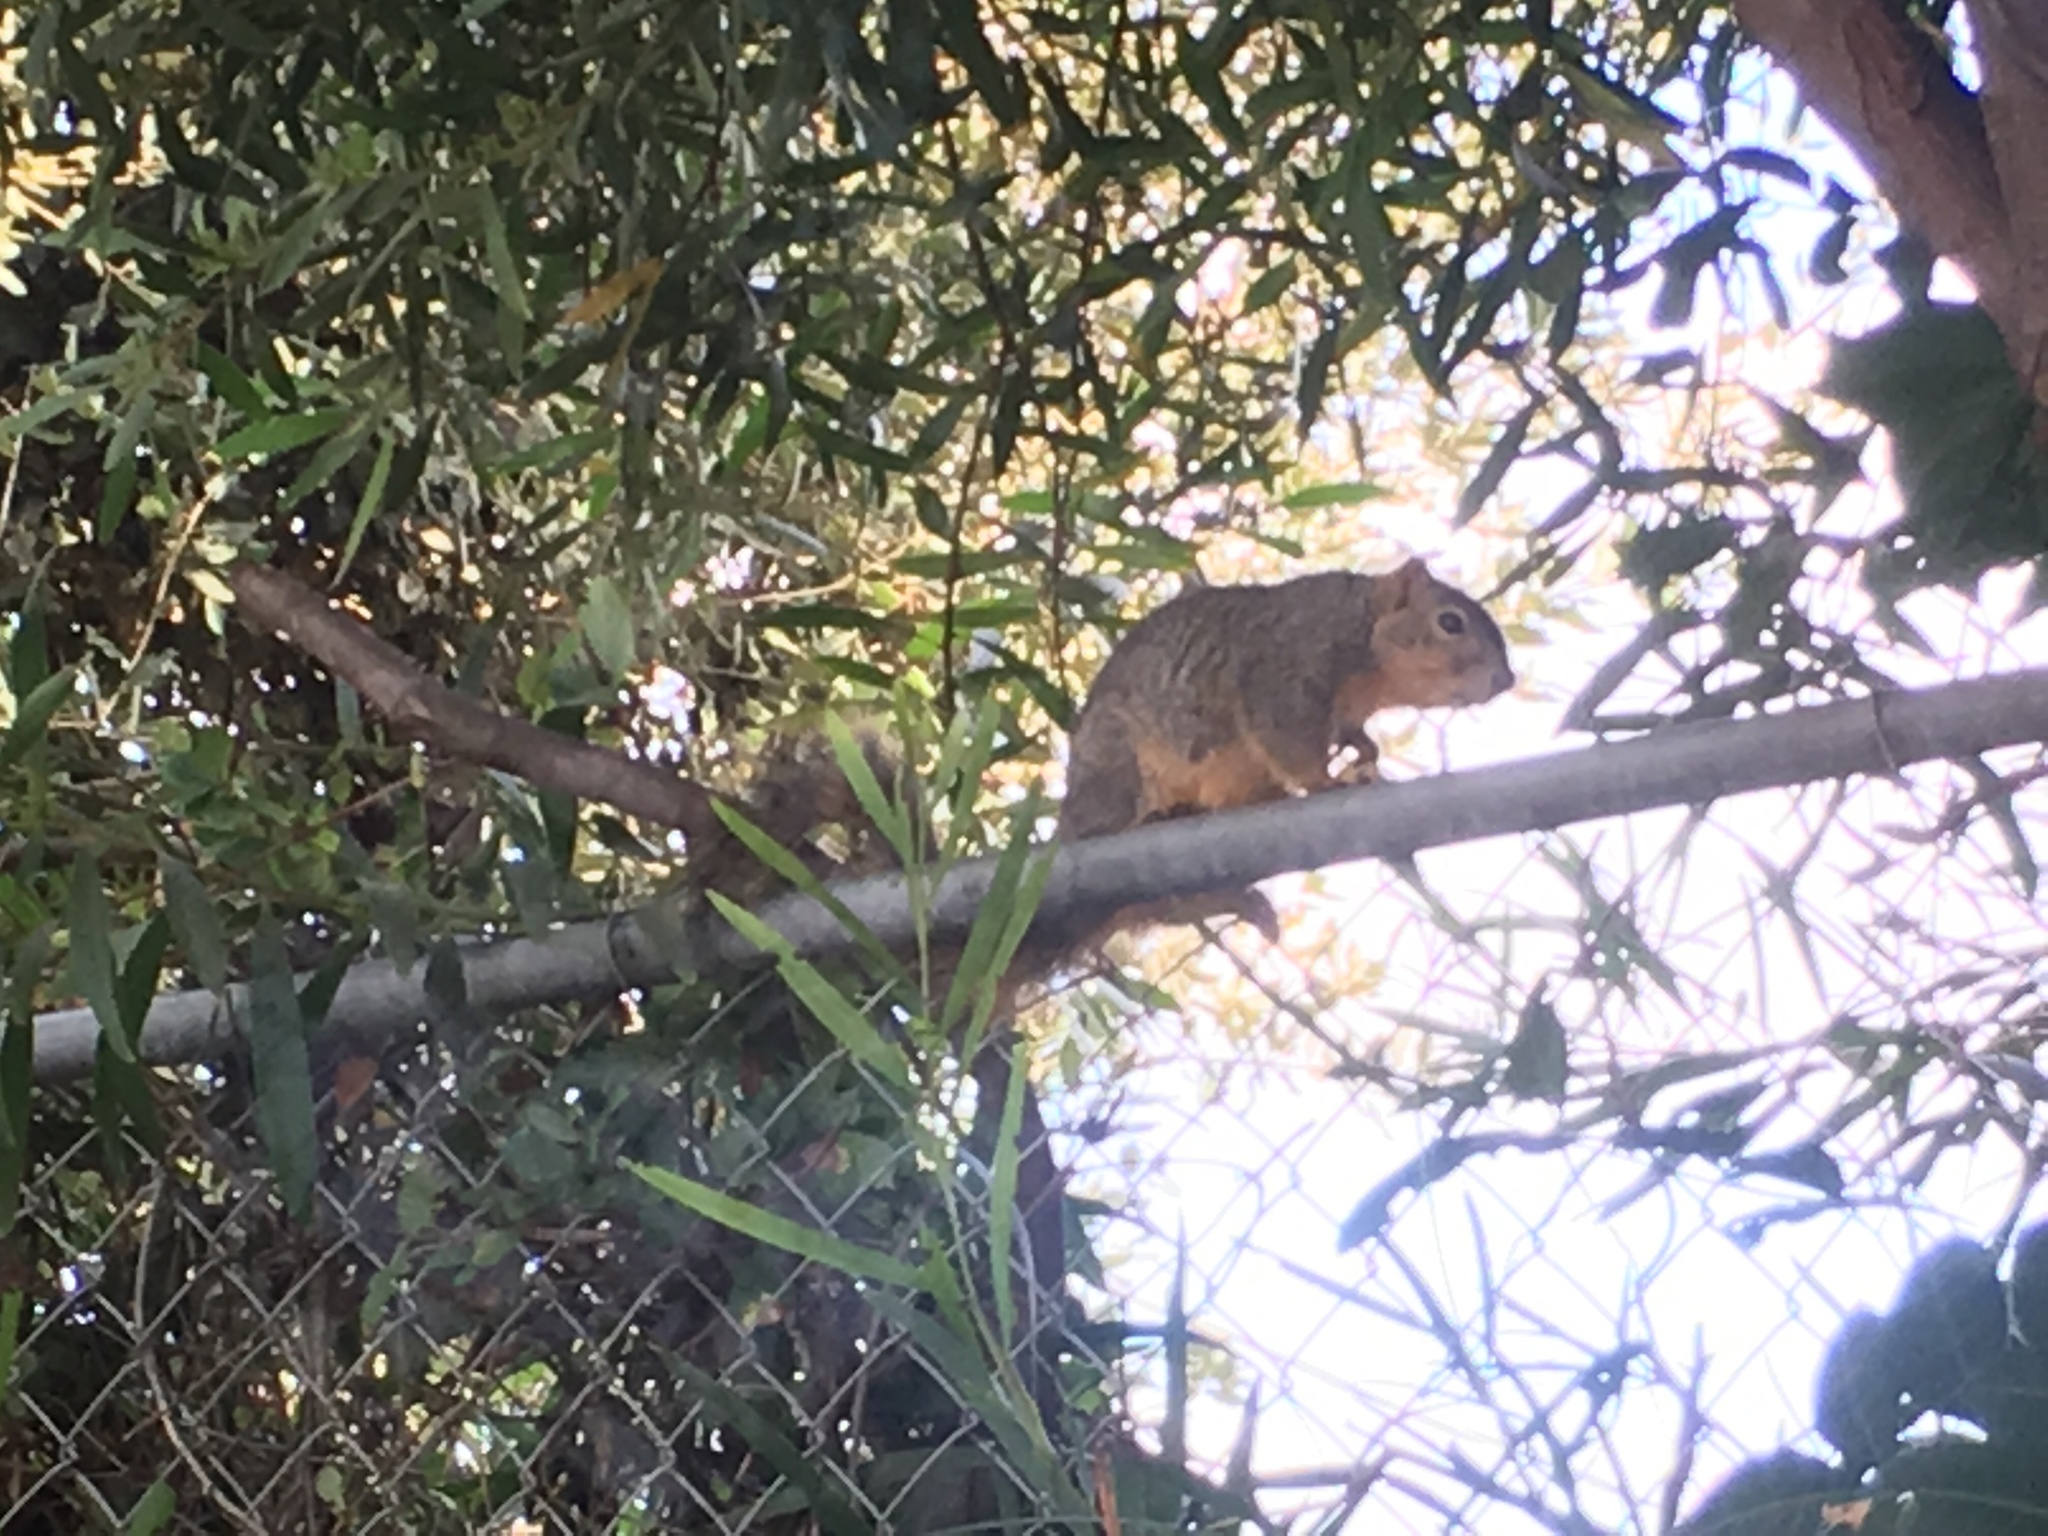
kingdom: Animalia
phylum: Chordata
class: Mammalia
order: Rodentia
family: Sciuridae
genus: Sciurus
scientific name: Sciurus niger
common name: Fox squirrel
